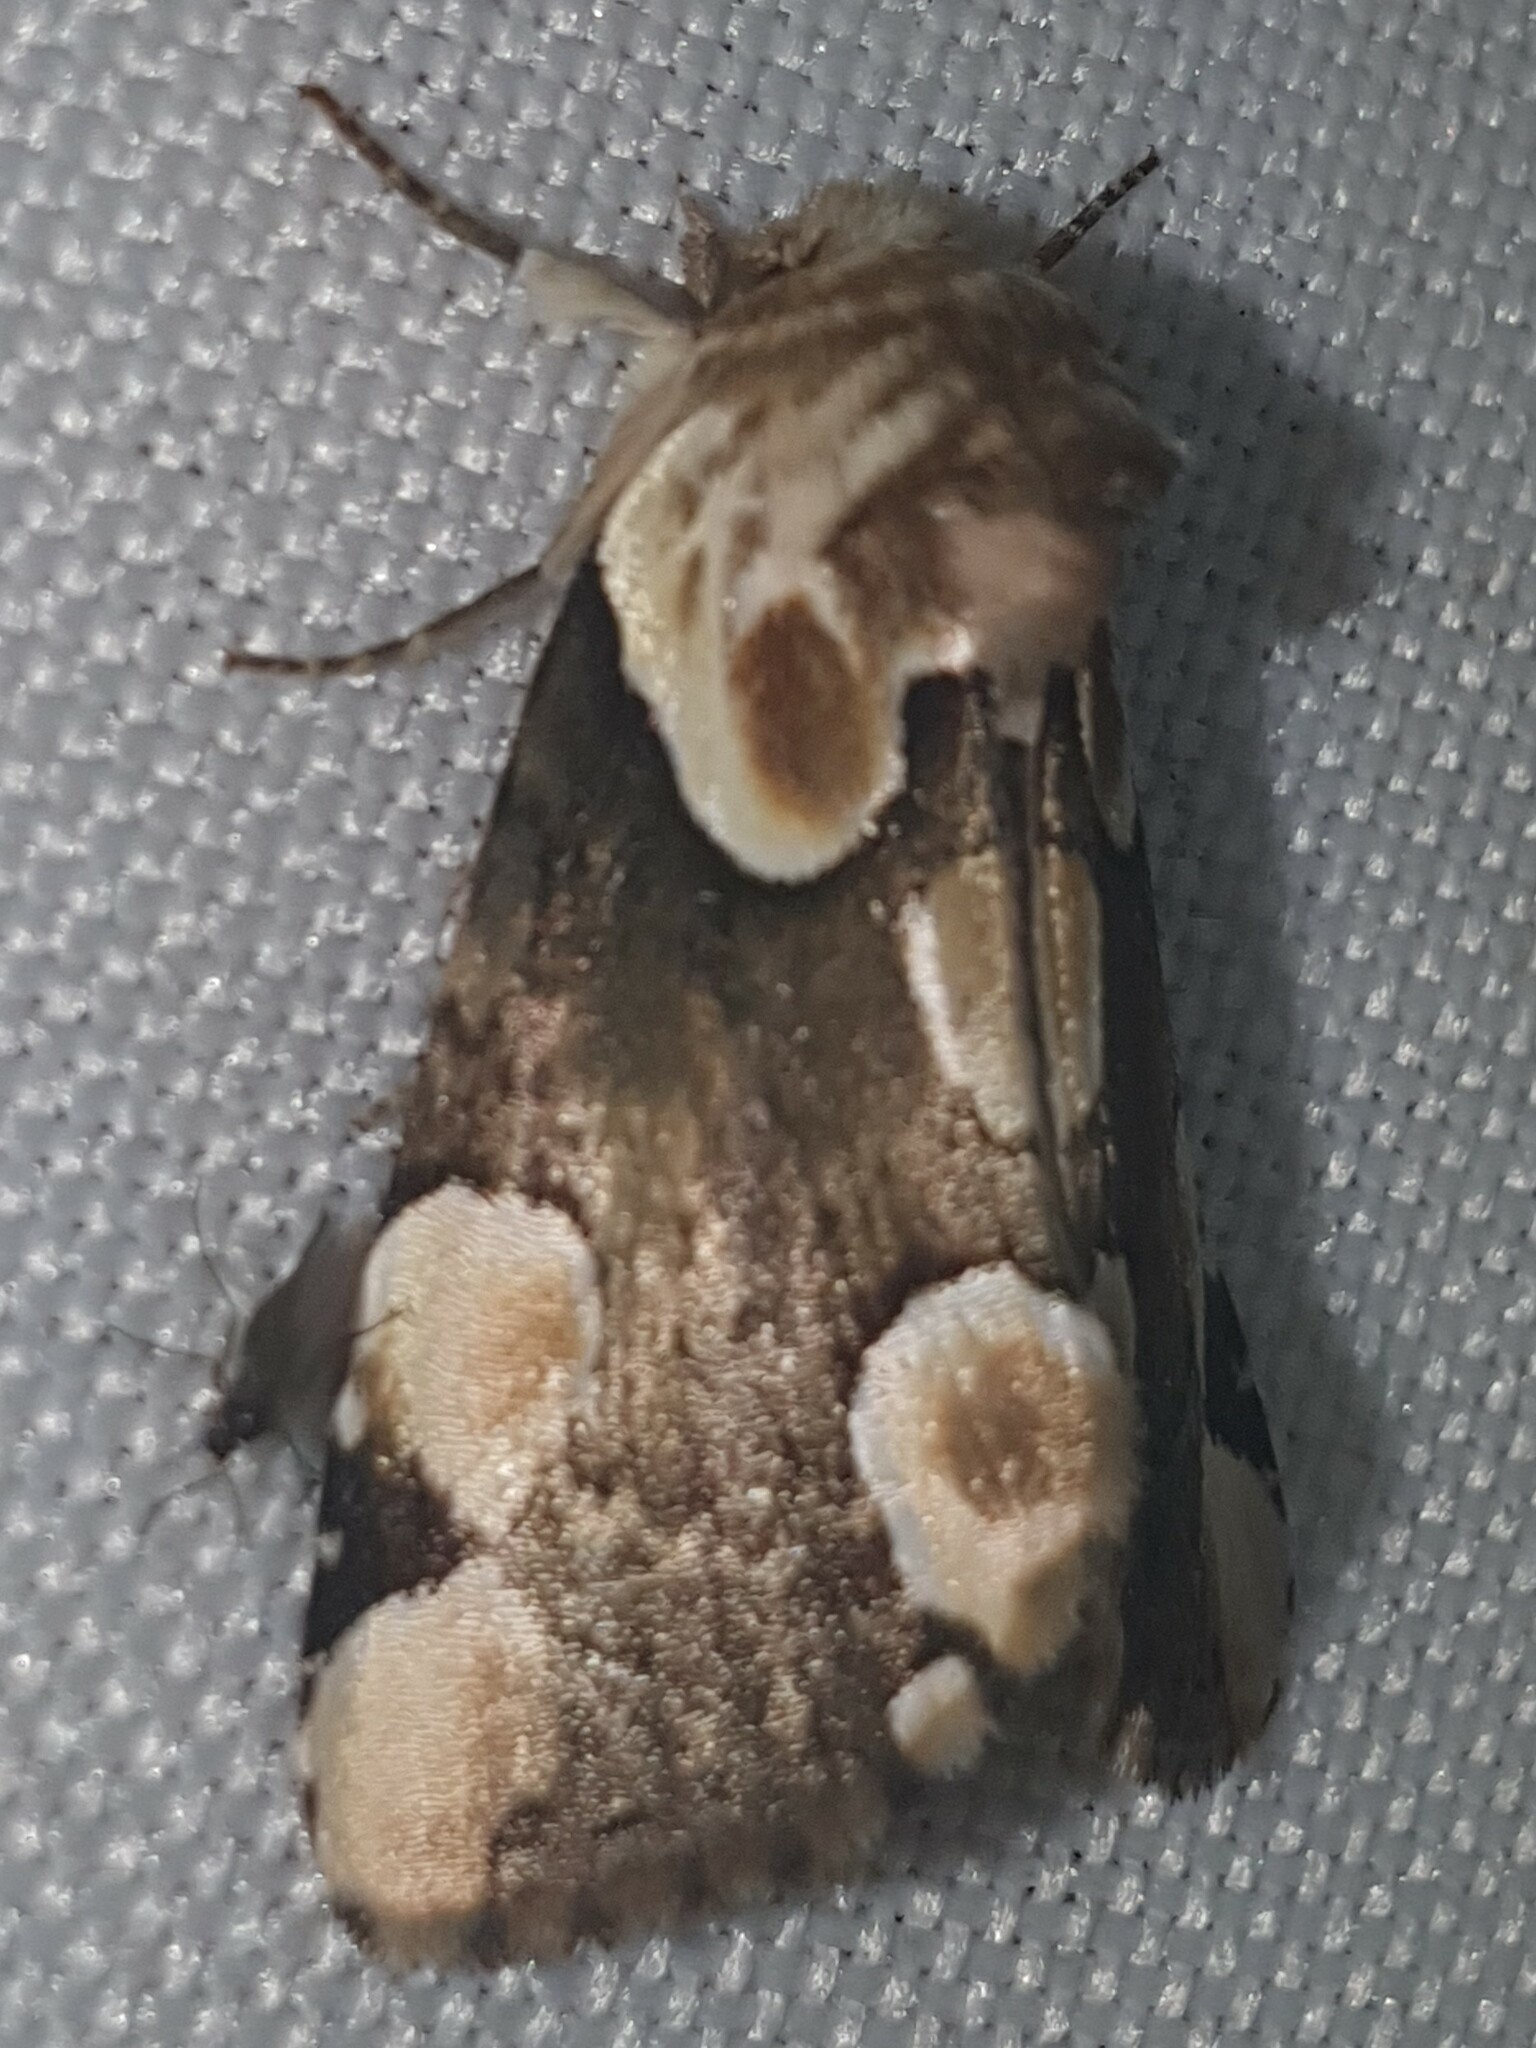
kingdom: Animalia
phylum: Arthropoda
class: Insecta
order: Lepidoptera
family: Drepanidae
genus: Thyatira
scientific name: Thyatira batis
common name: Peach blossom
